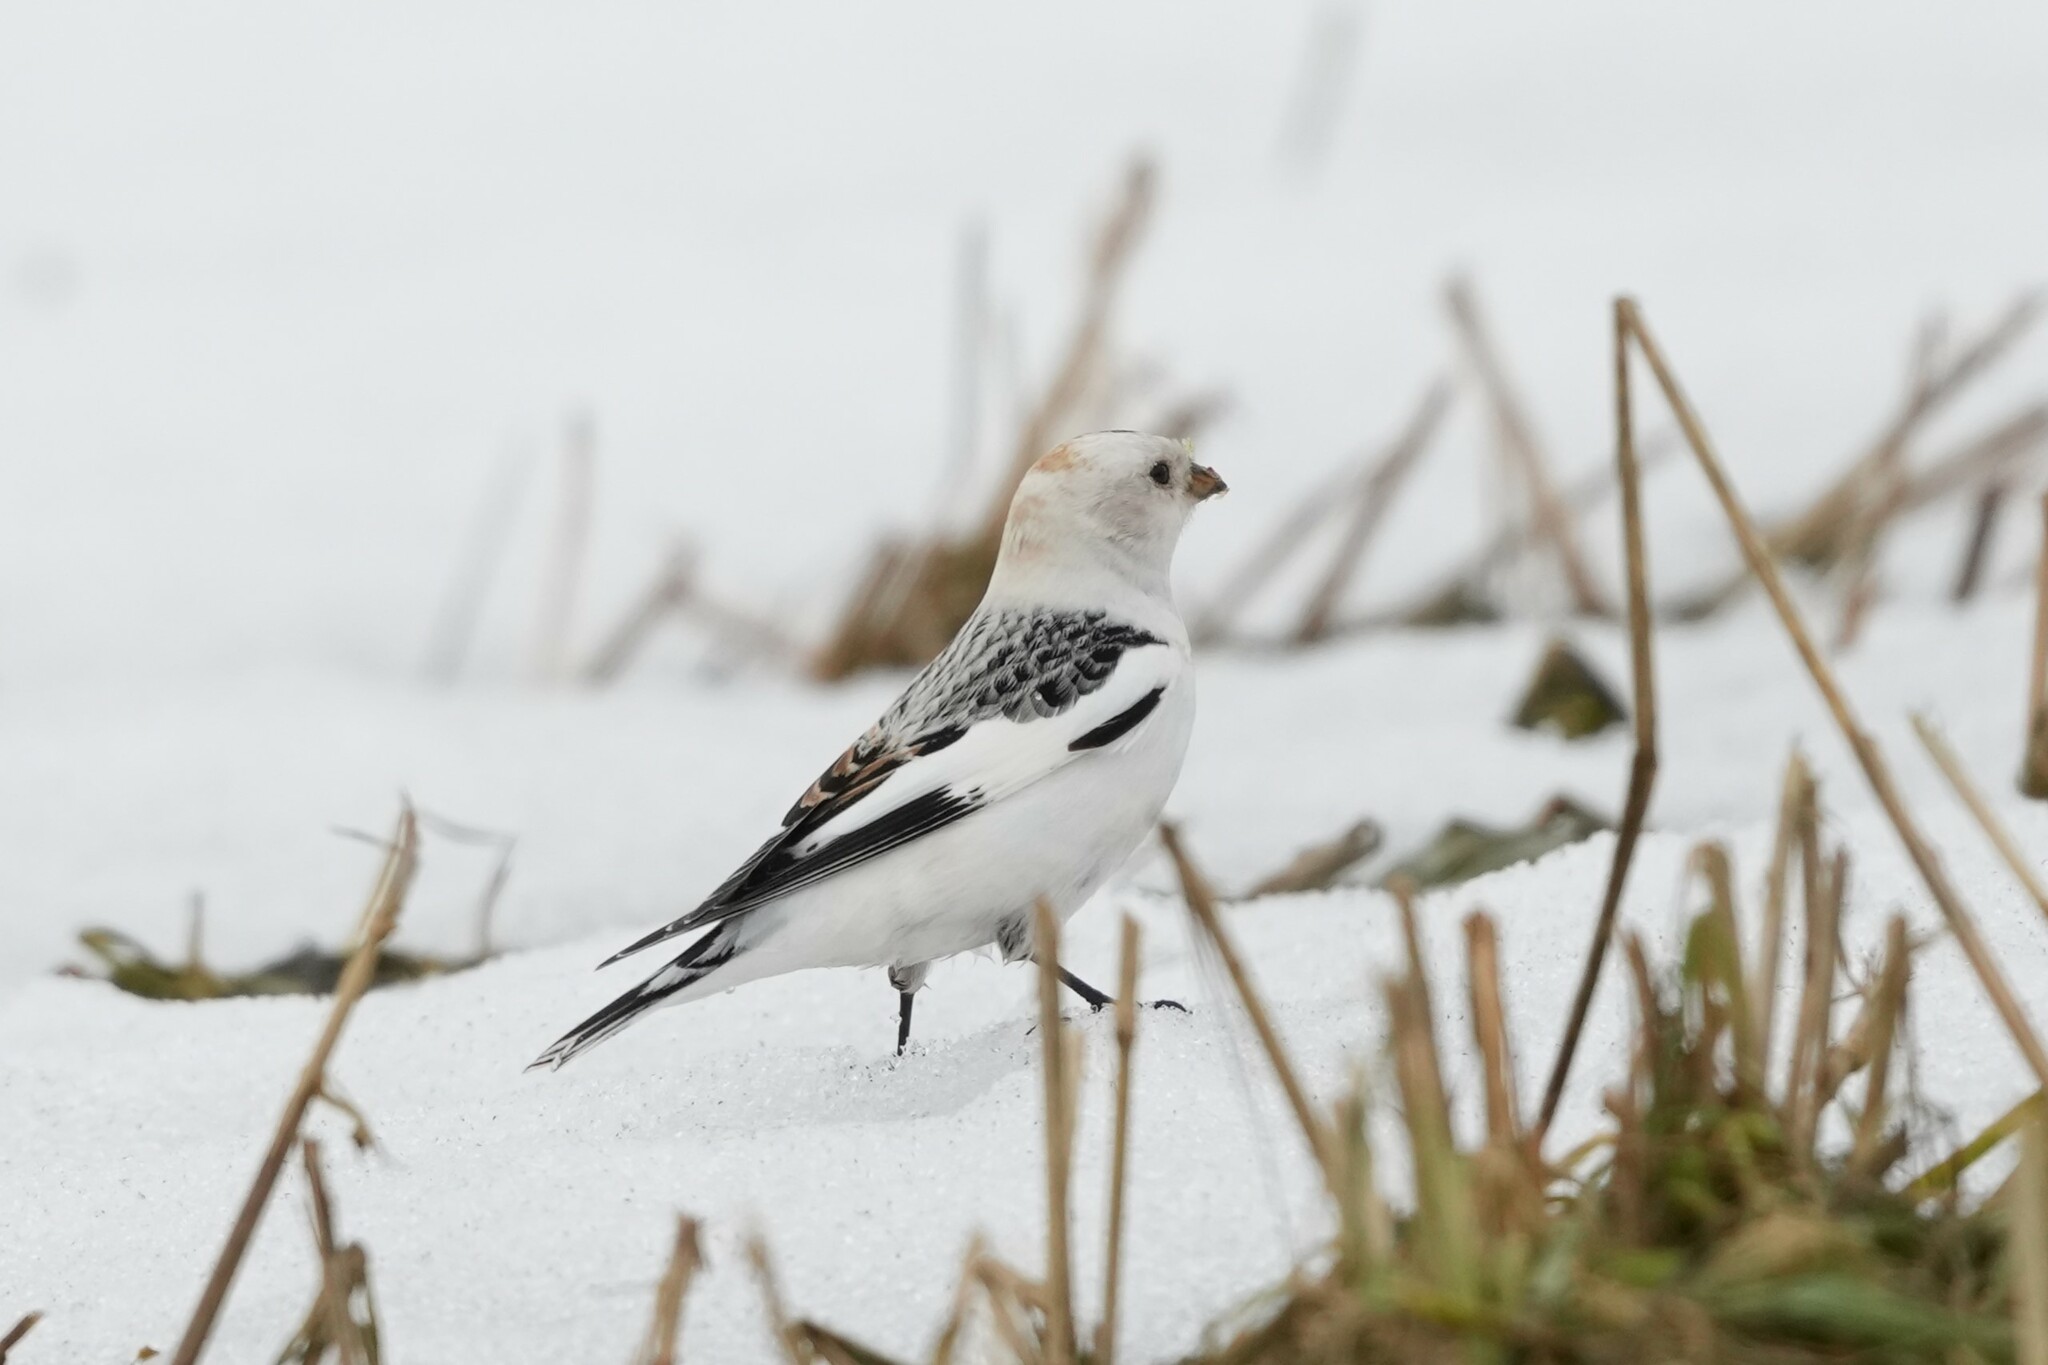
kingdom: Animalia
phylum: Chordata
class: Aves
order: Passeriformes
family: Calcariidae
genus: Plectrophenax
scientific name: Plectrophenax nivalis
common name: Snow bunting
